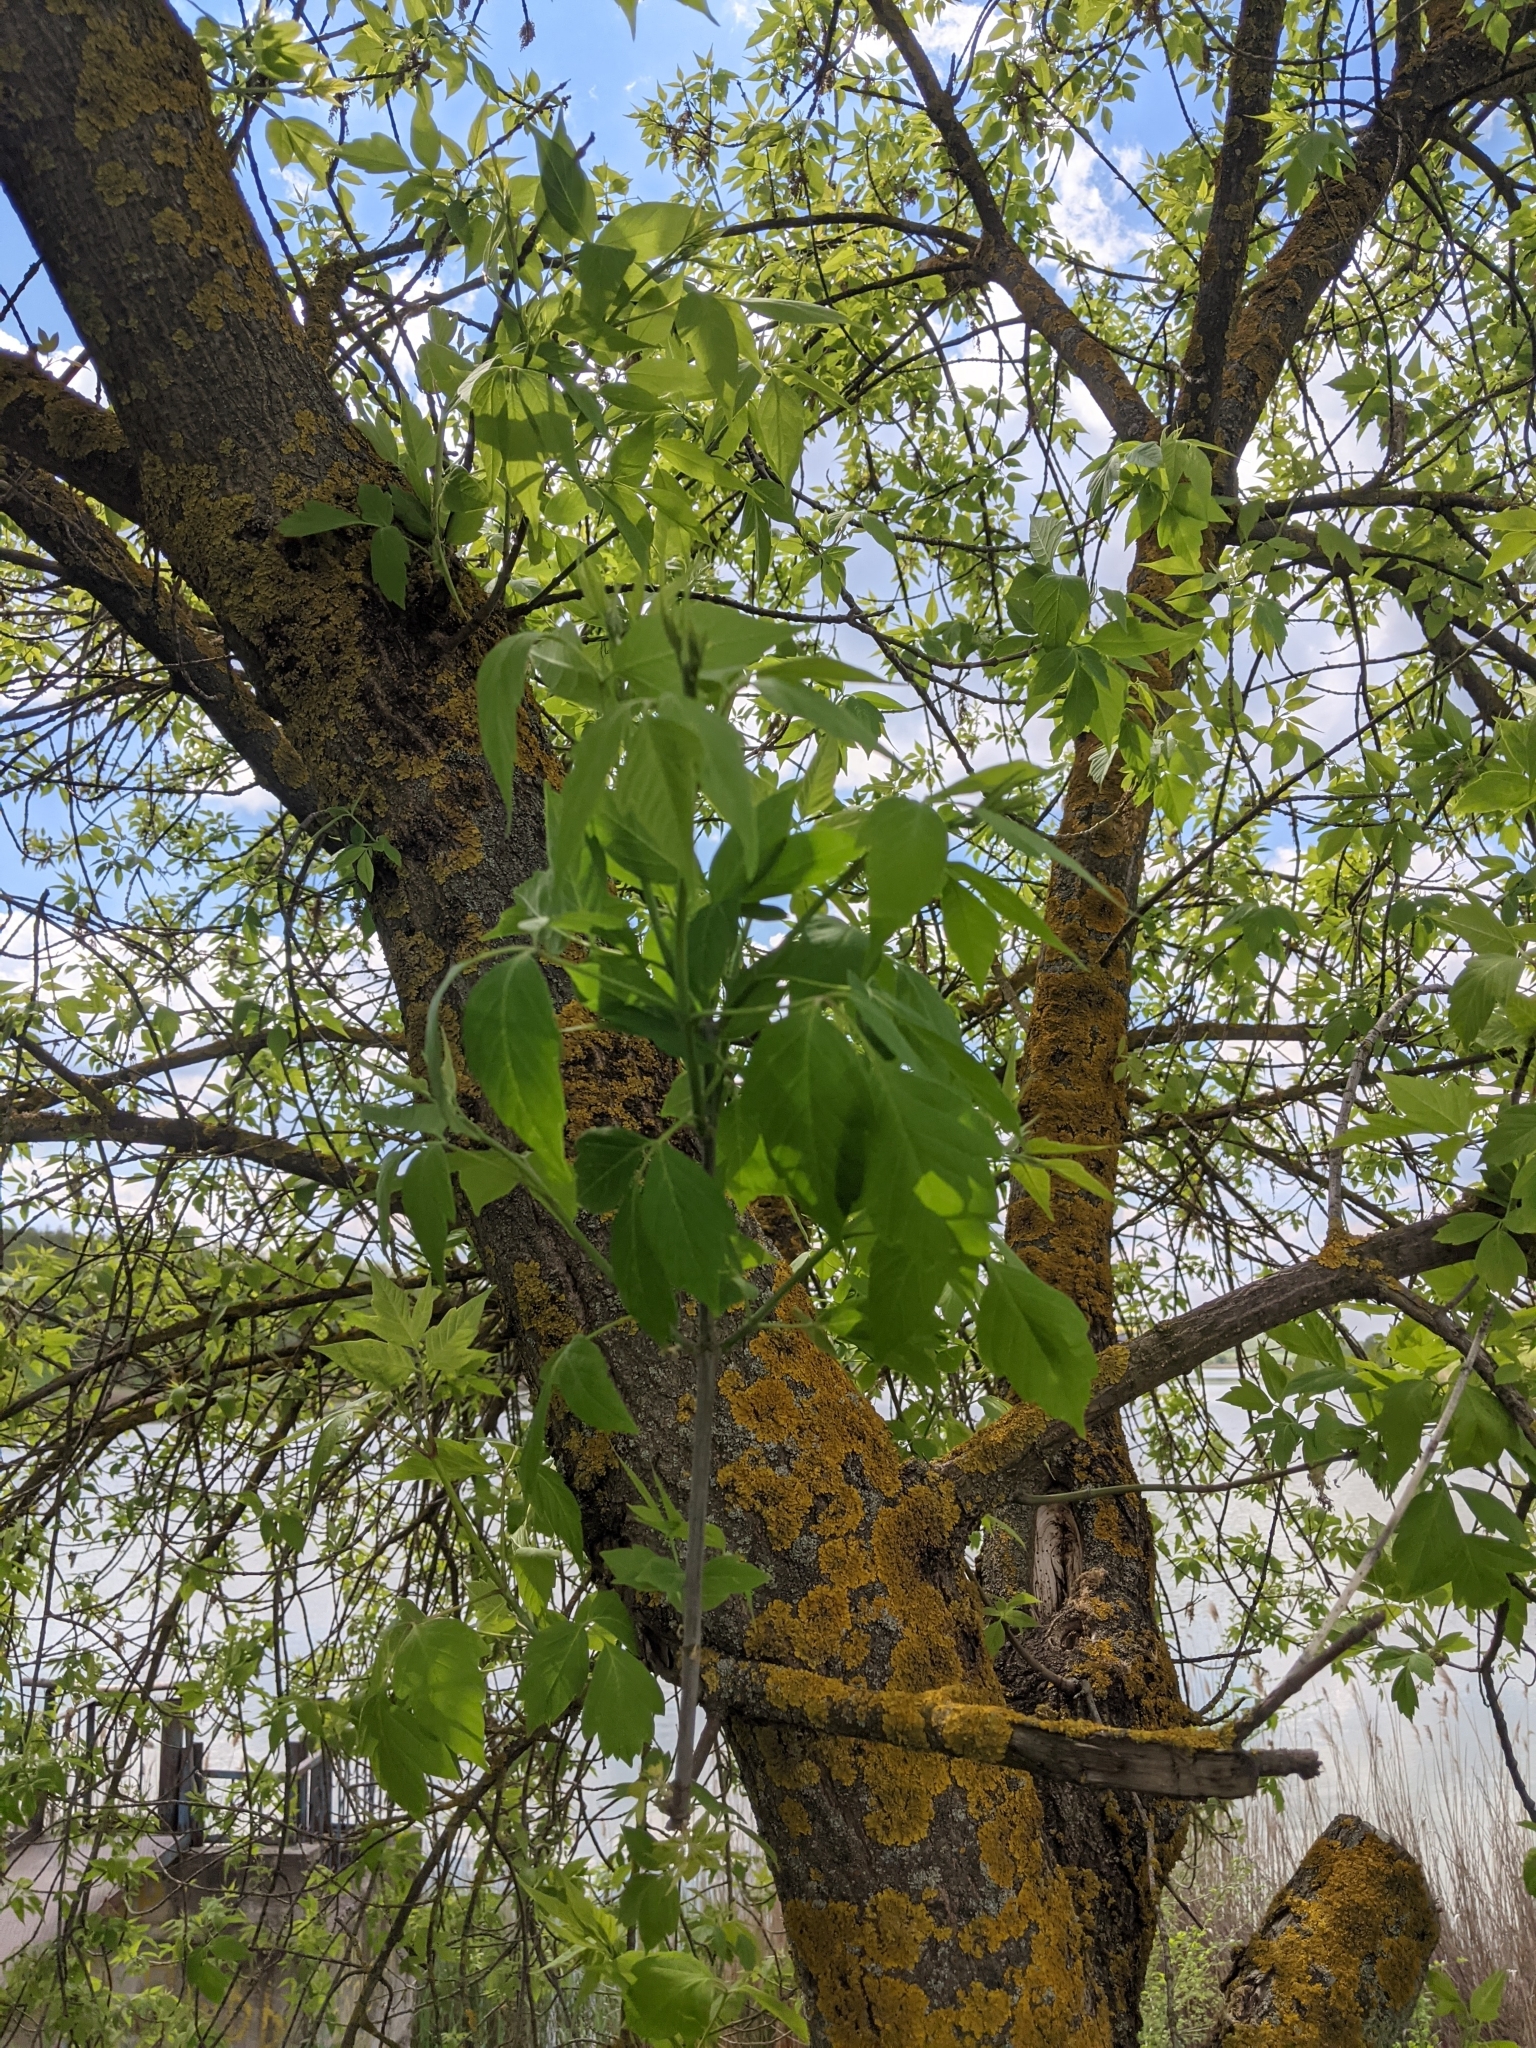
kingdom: Plantae
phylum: Tracheophyta
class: Magnoliopsida
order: Sapindales
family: Sapindaceae
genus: Acer
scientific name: Acer negundo
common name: Ashleaf maple
